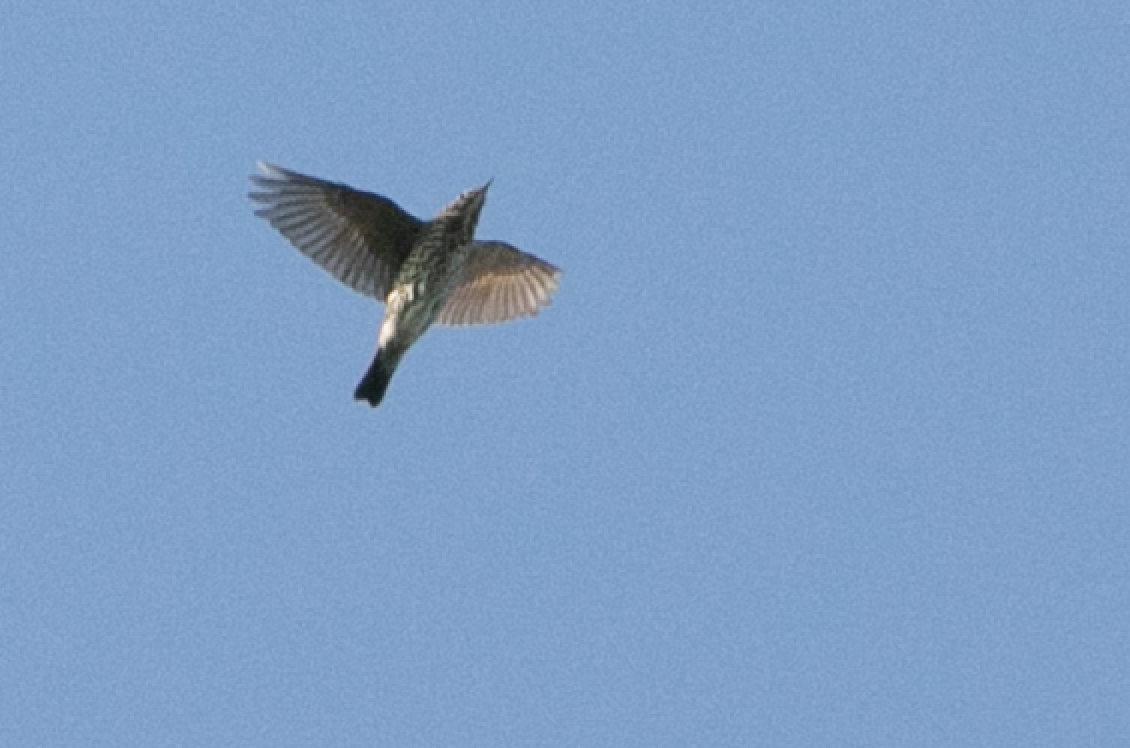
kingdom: Animalia
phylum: Chordata
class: Aves
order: Passeriformes
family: Turdidae
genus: Turdus
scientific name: Turdus philomelos
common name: Song thrush
